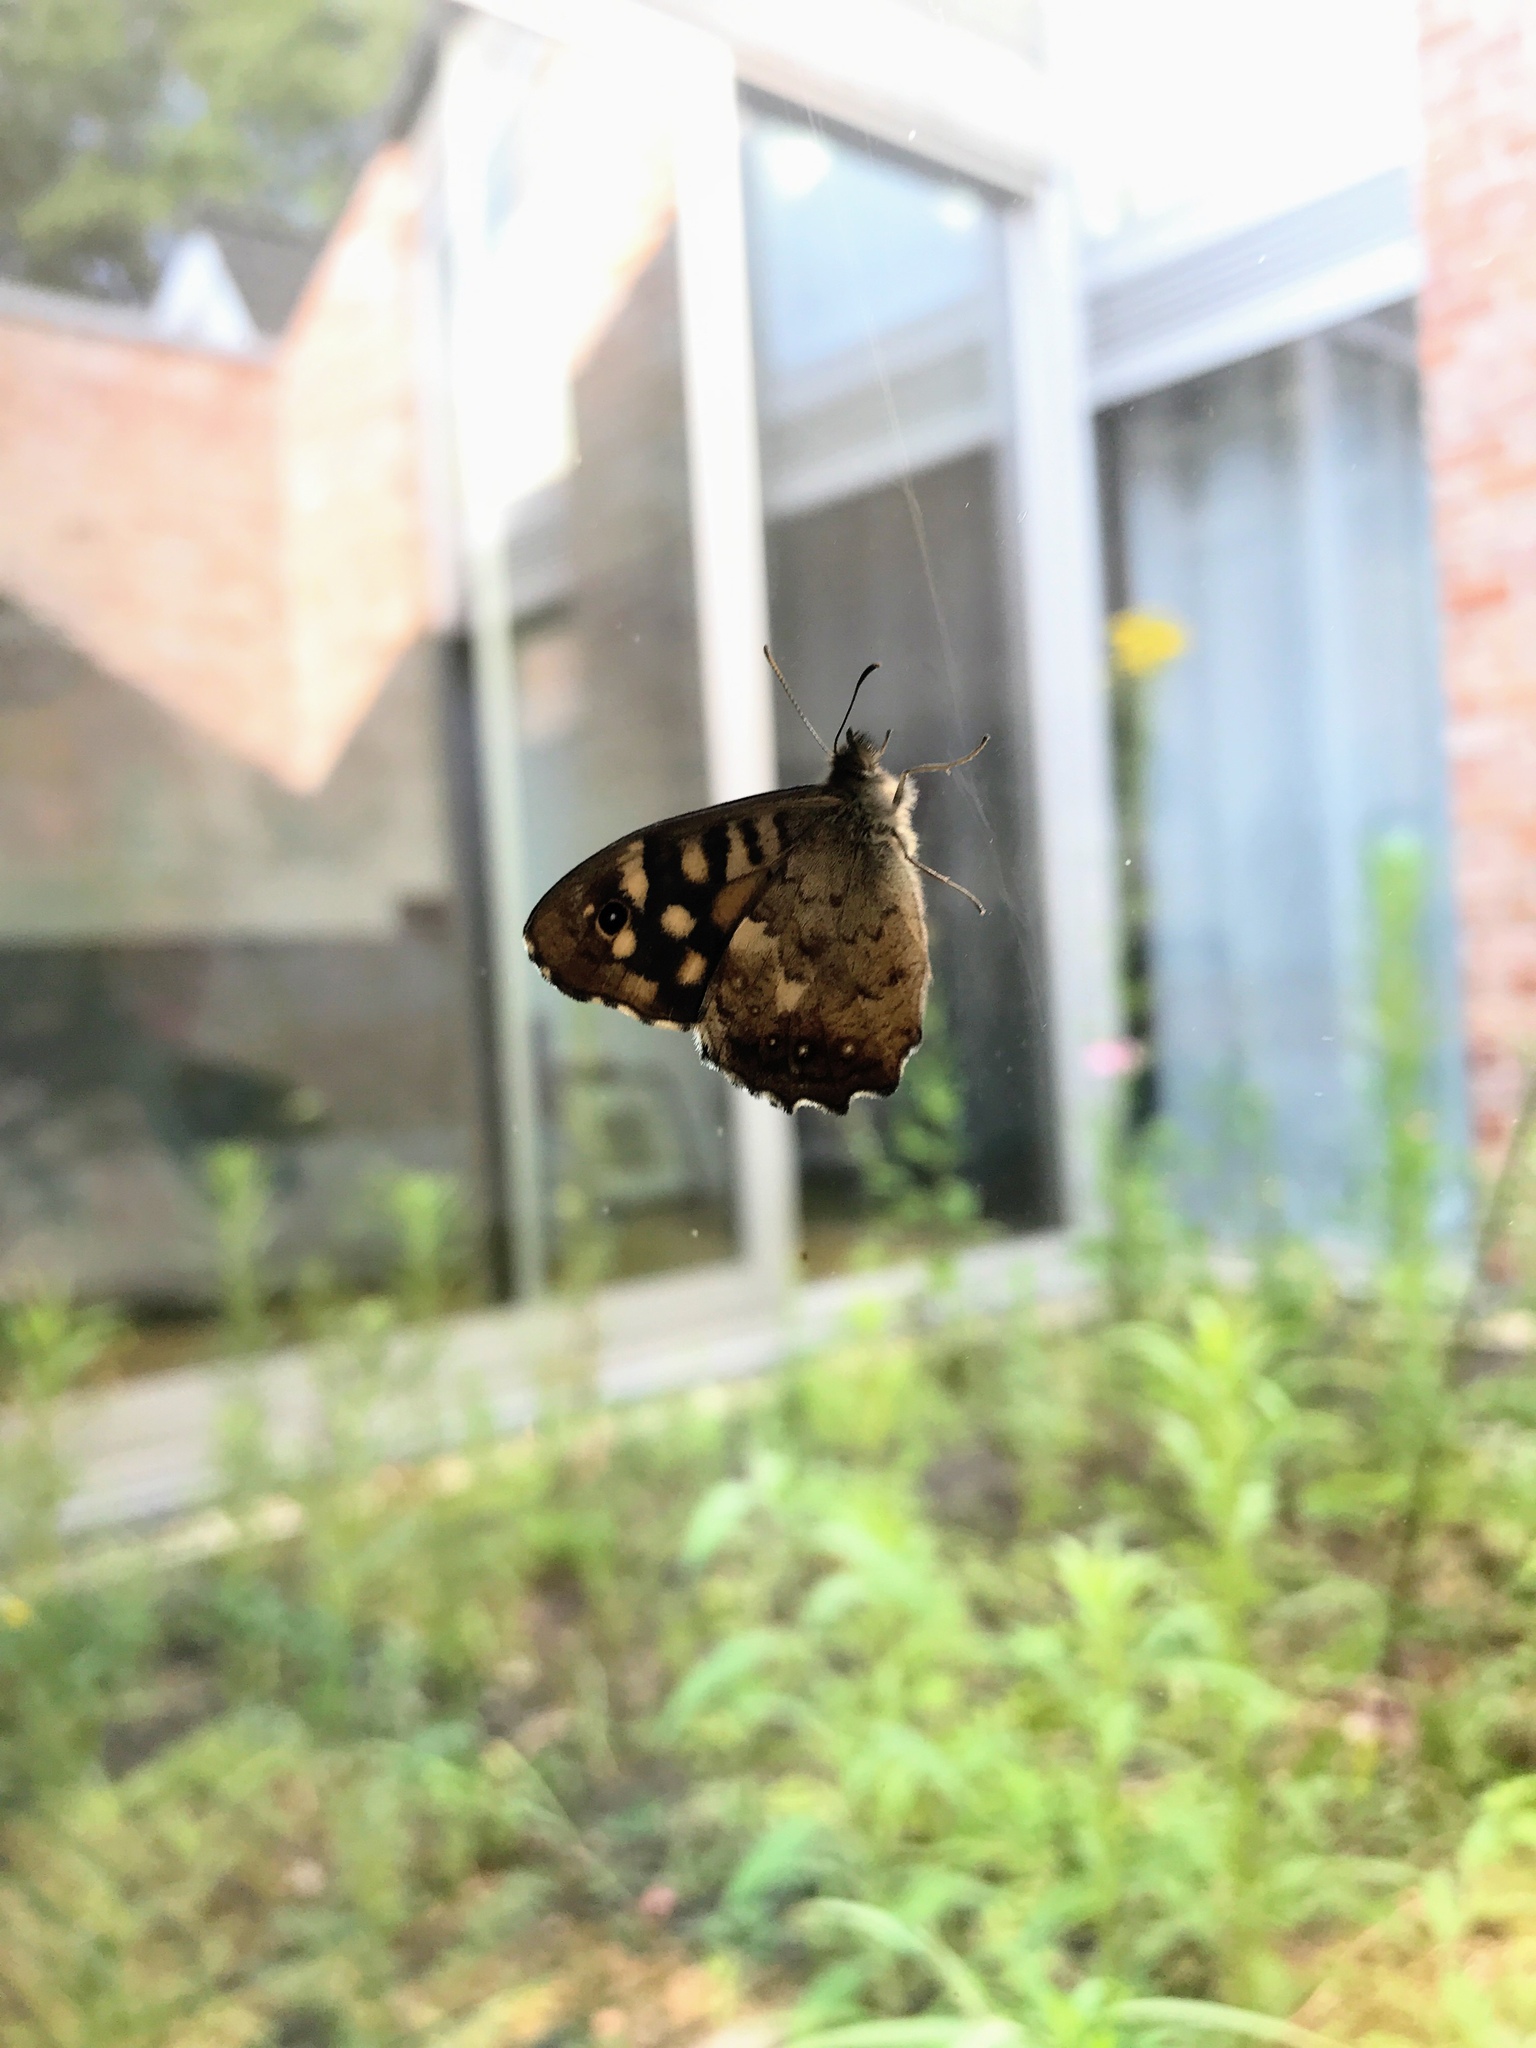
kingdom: Animalia
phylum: Arthropoda
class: Insecta
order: Lepidoptera
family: Nymphalidae
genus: Pararge
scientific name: Pararge aegeria
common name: Speckled wood
